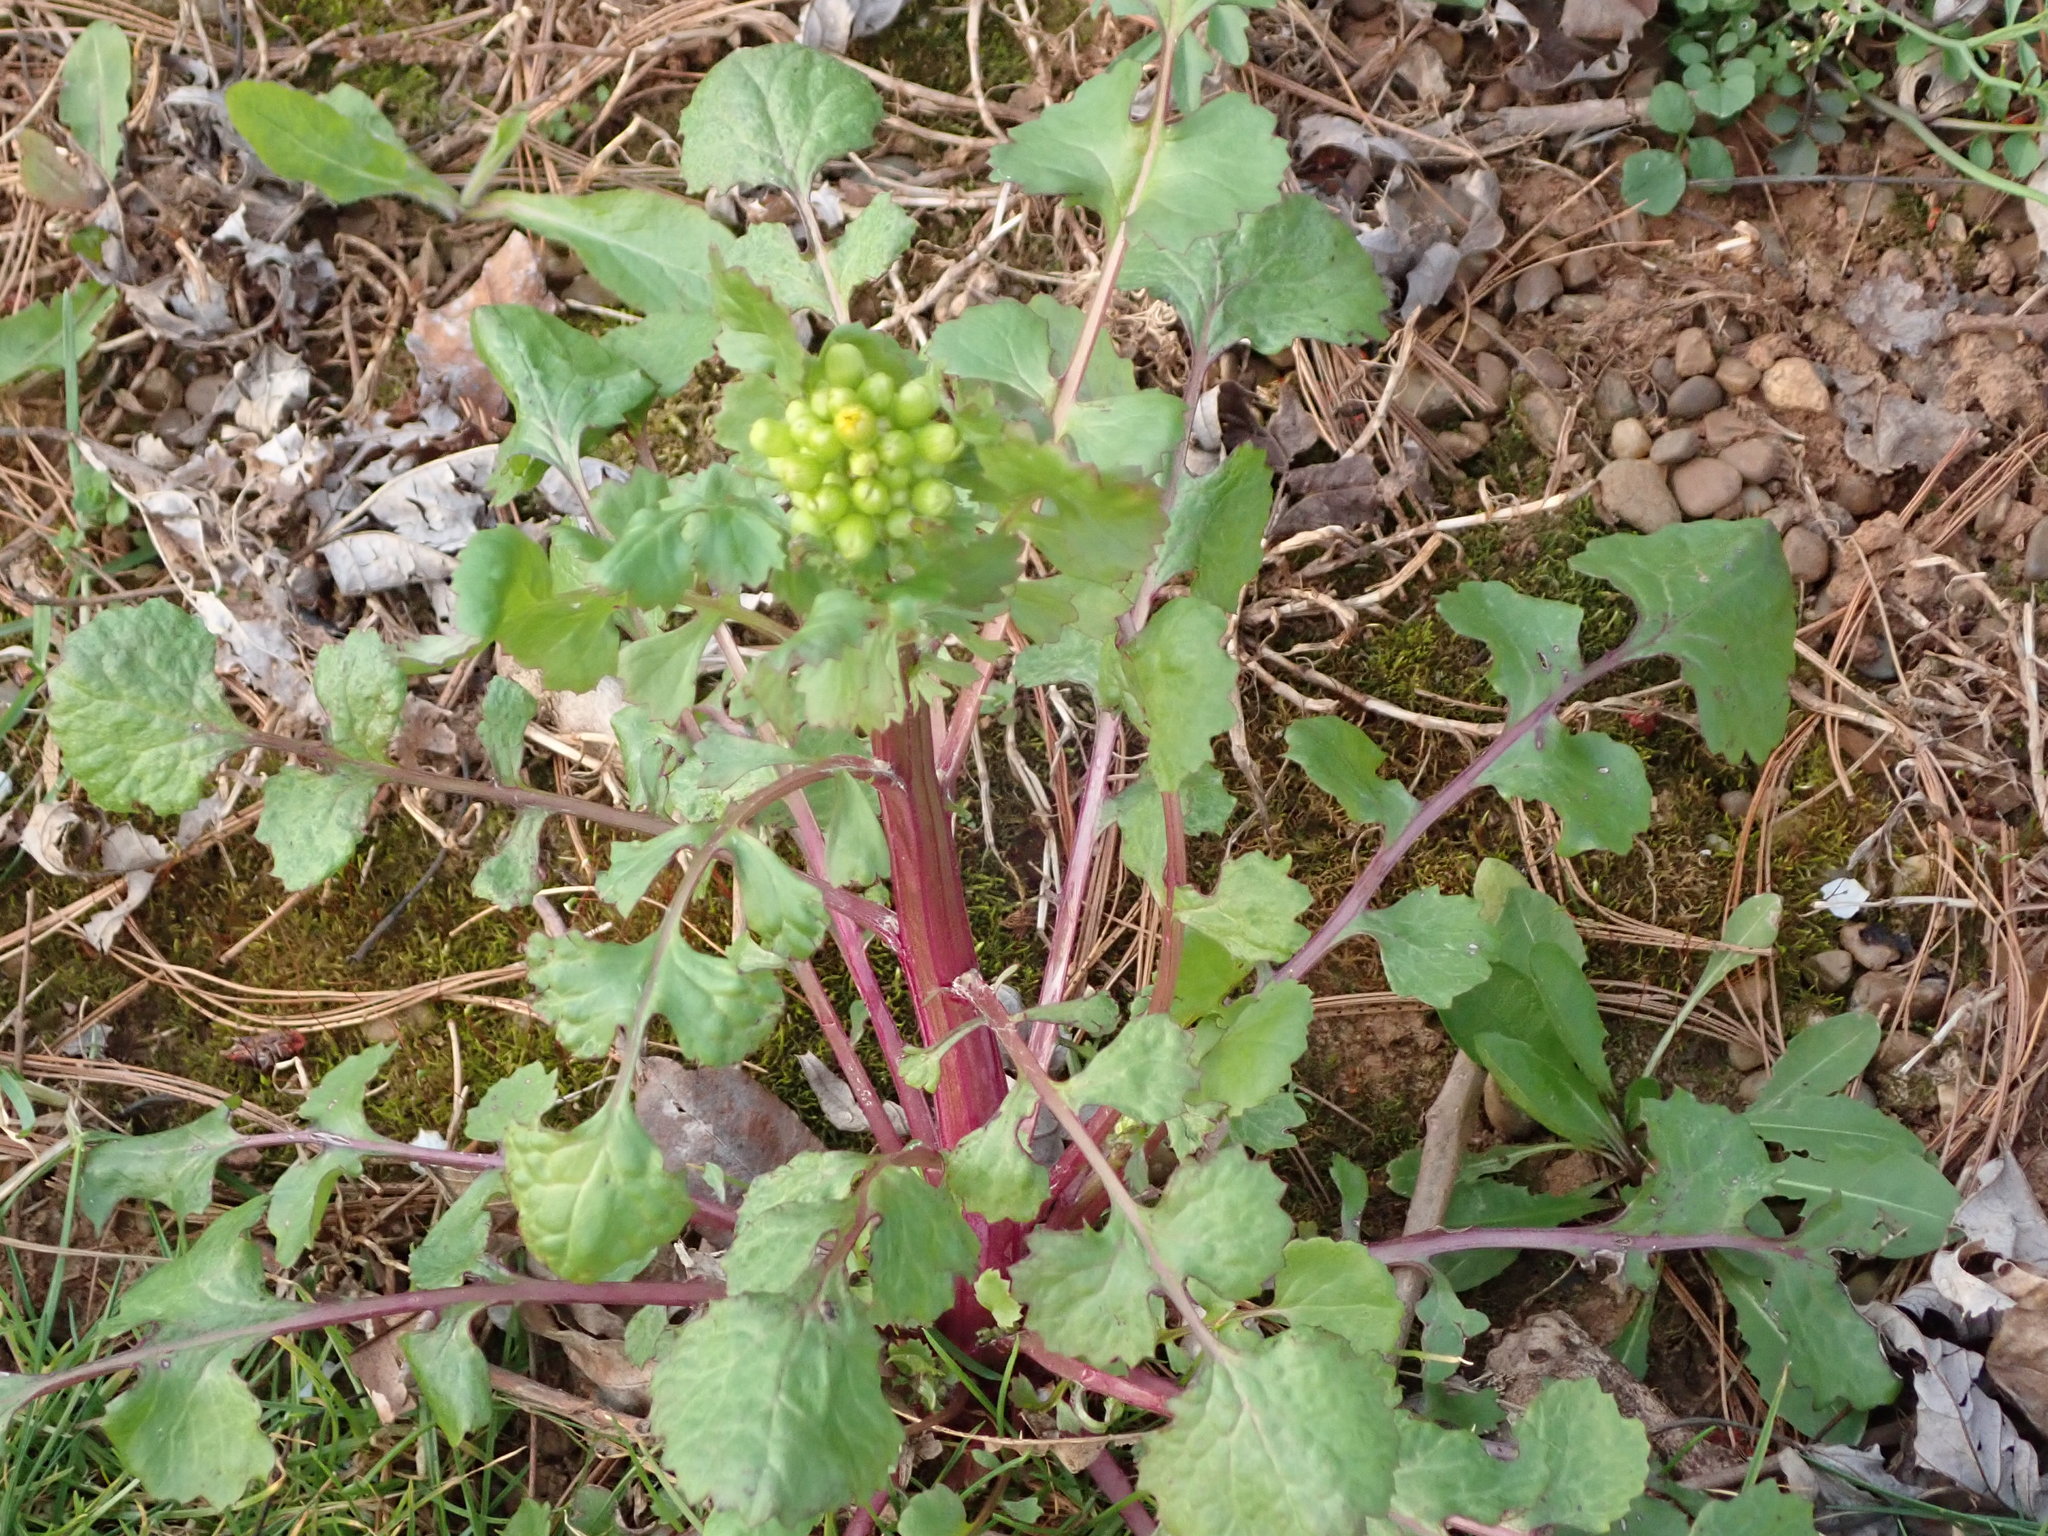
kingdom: Plantae
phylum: Tracheophyta
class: Magnoliopsida
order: Asterales
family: Asteraceae
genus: Packera
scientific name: Packera glabella
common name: Butterweed
